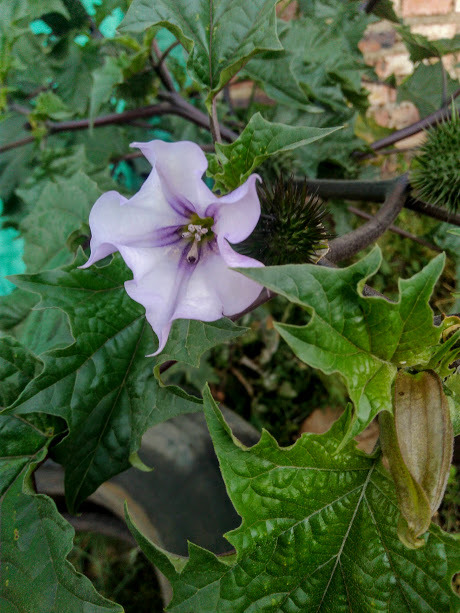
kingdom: Plantae
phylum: Tracheophyta
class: Magnoliopsida
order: Solanales
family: Solanaceae
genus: Datura
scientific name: Datura stramonium
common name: Thorn-apple
